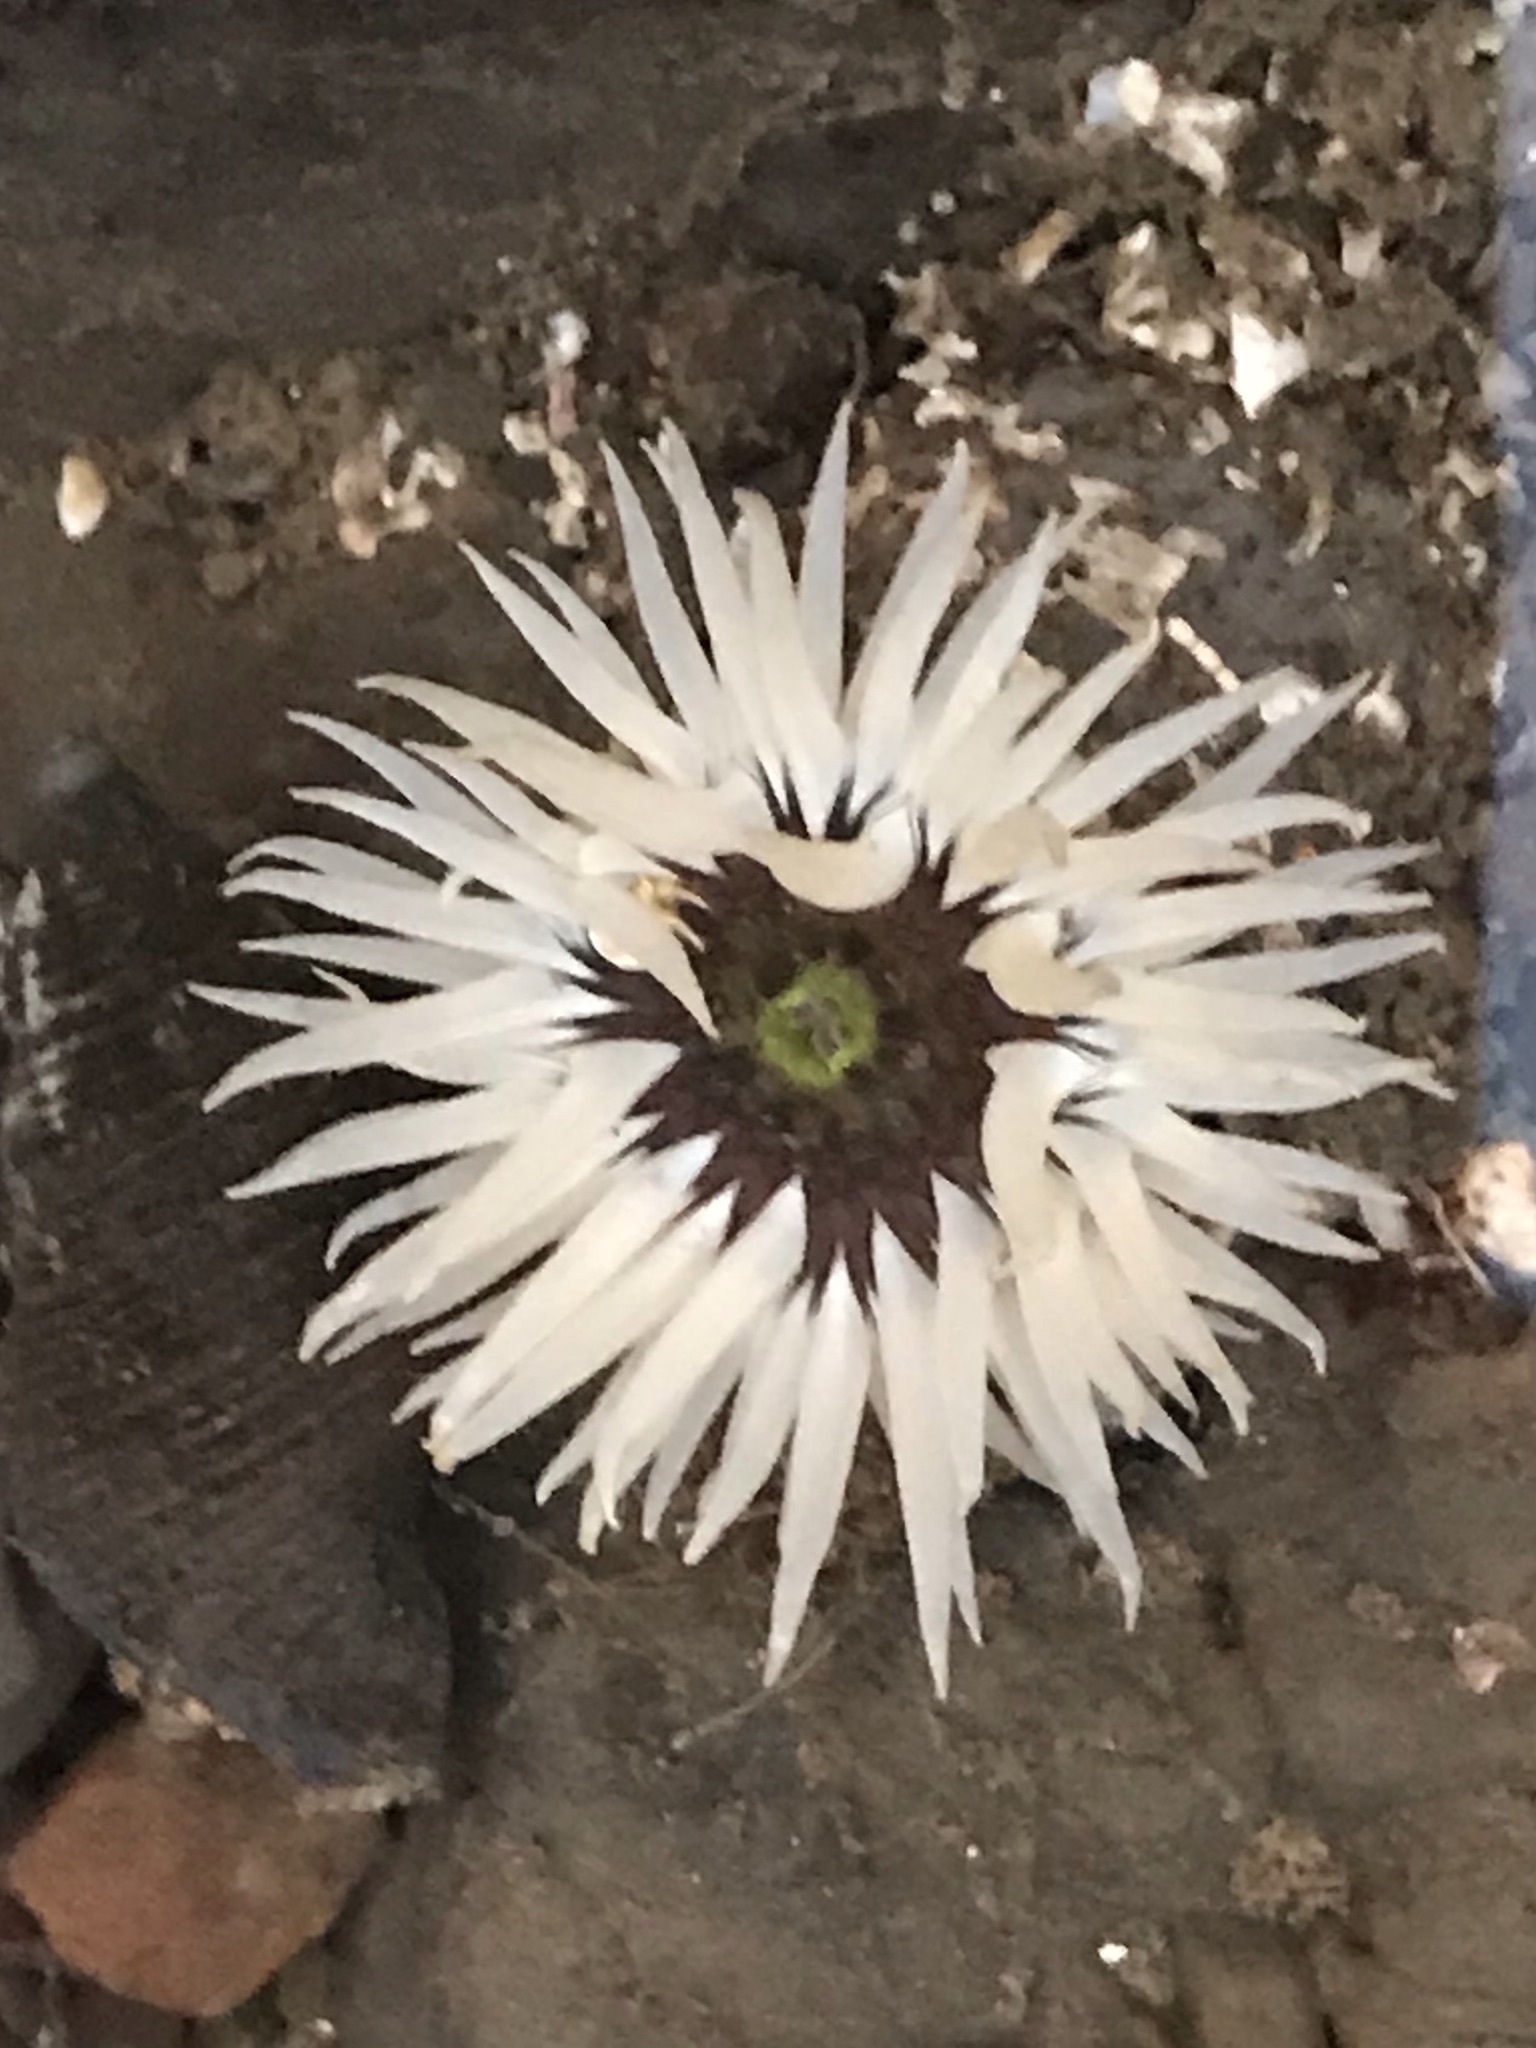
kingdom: Animalia
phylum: Cnidaria
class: Anthozoa
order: Actiniaria
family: Actiniidae
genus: Anthopleura
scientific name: Anthopleura artemisia
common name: Buried sea anemone
